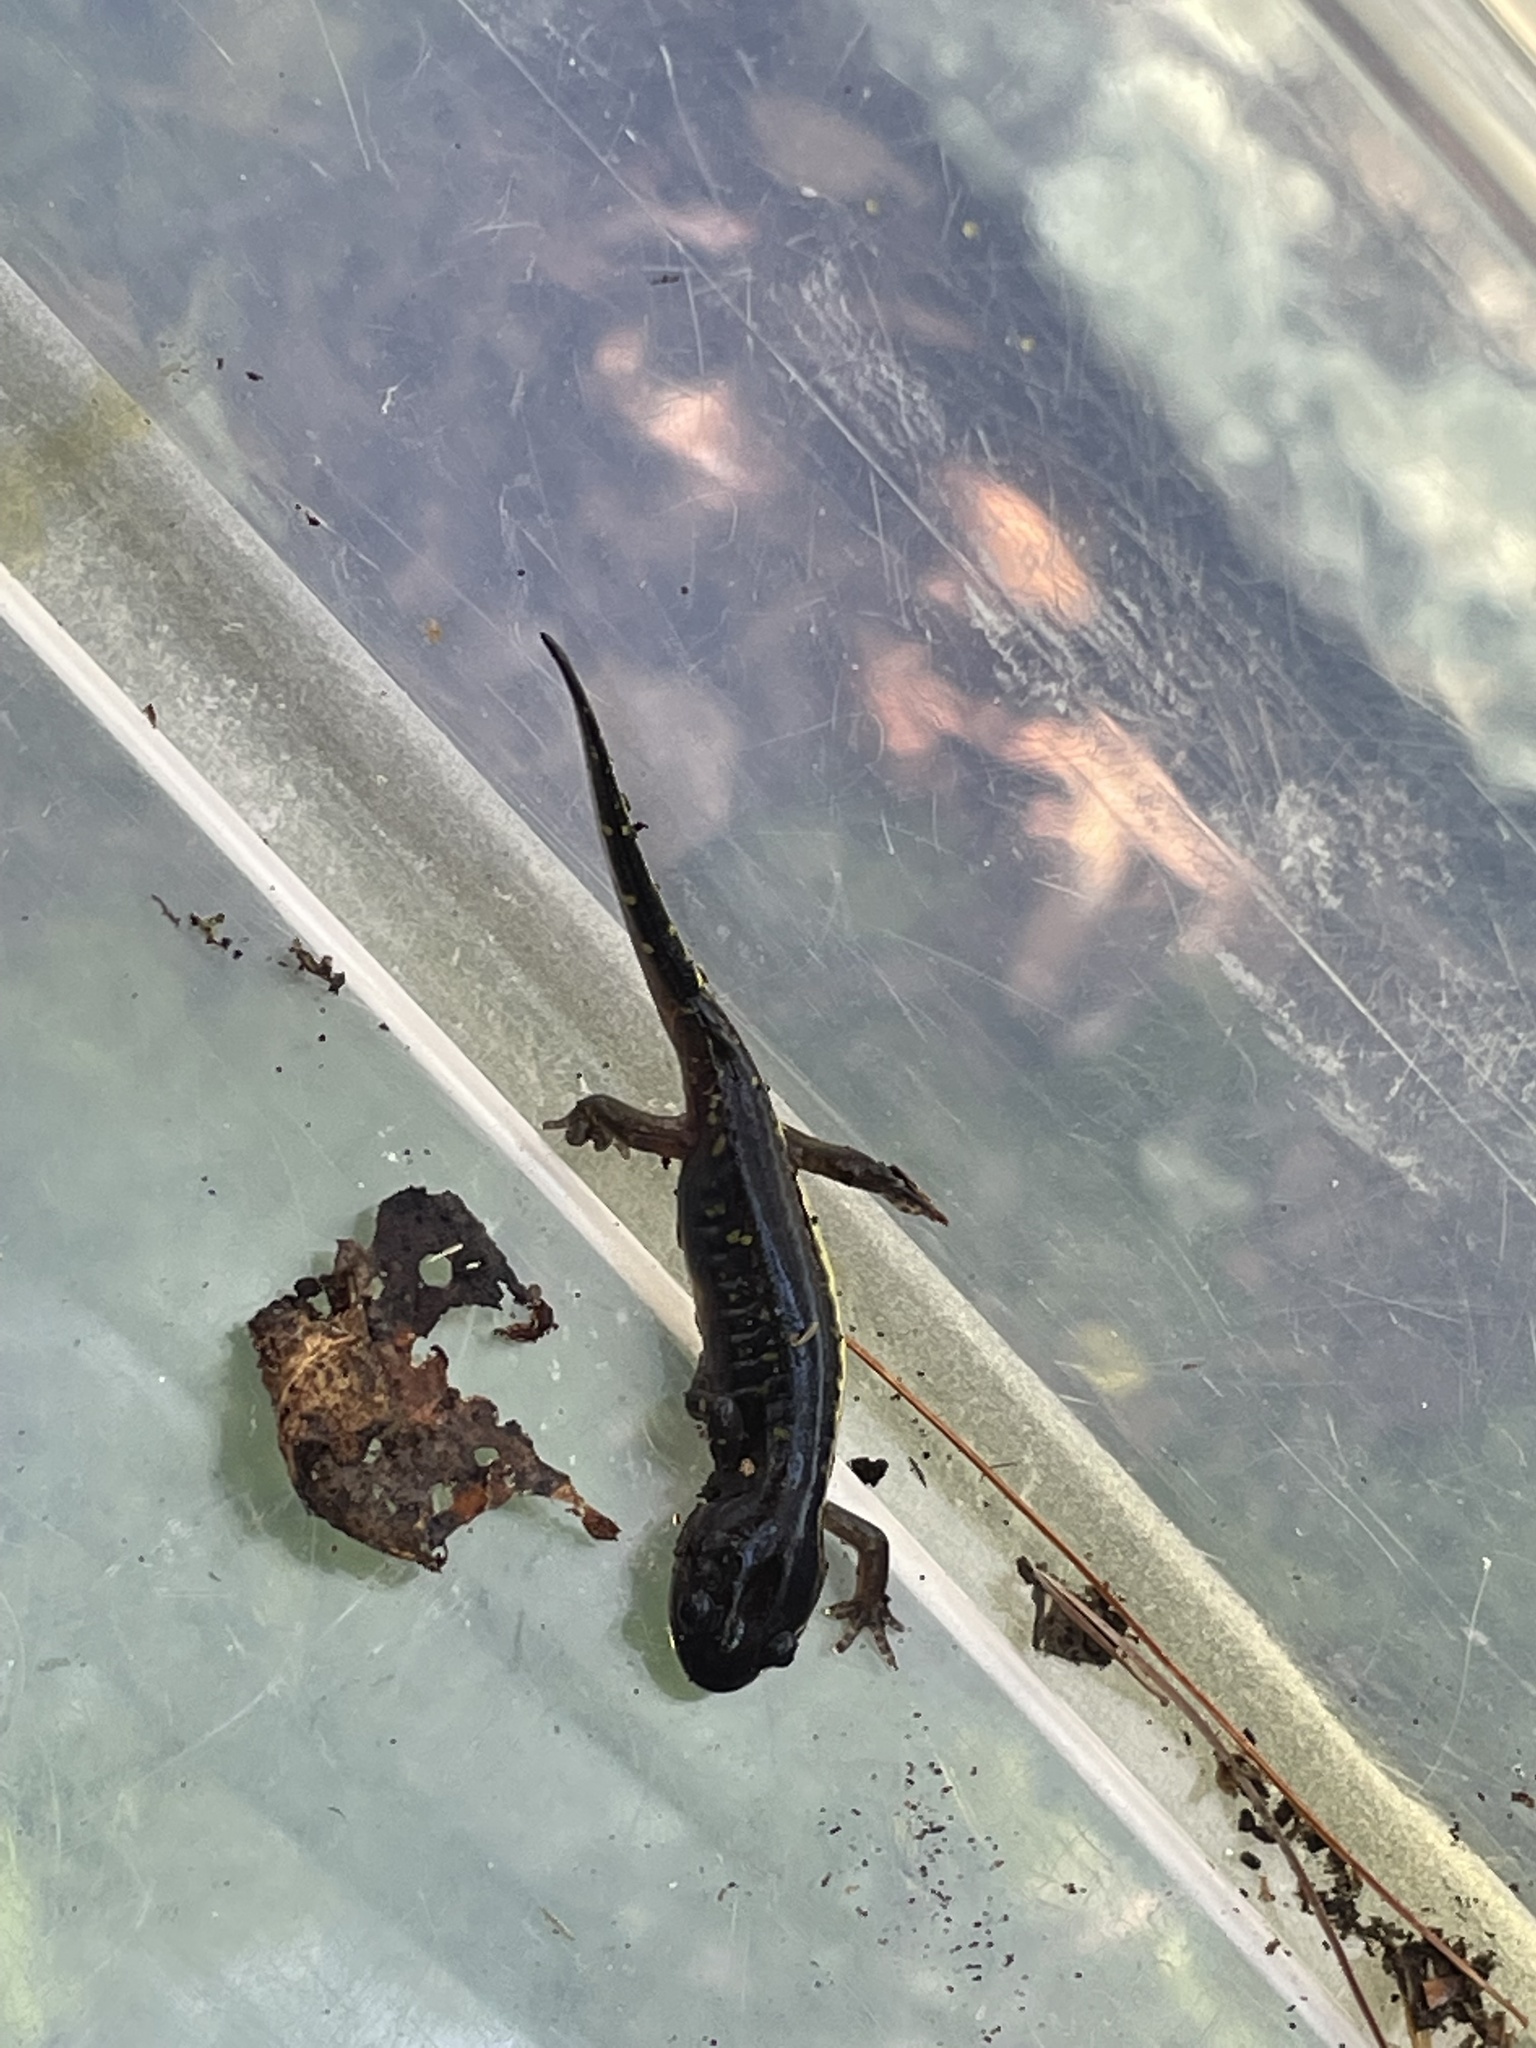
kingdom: Animalia
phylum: Chordata
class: Amphibia
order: Caudata
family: Ambystomatidae
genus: Ambystoma
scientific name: Ambystoma maculatum
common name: Spotted salamander
